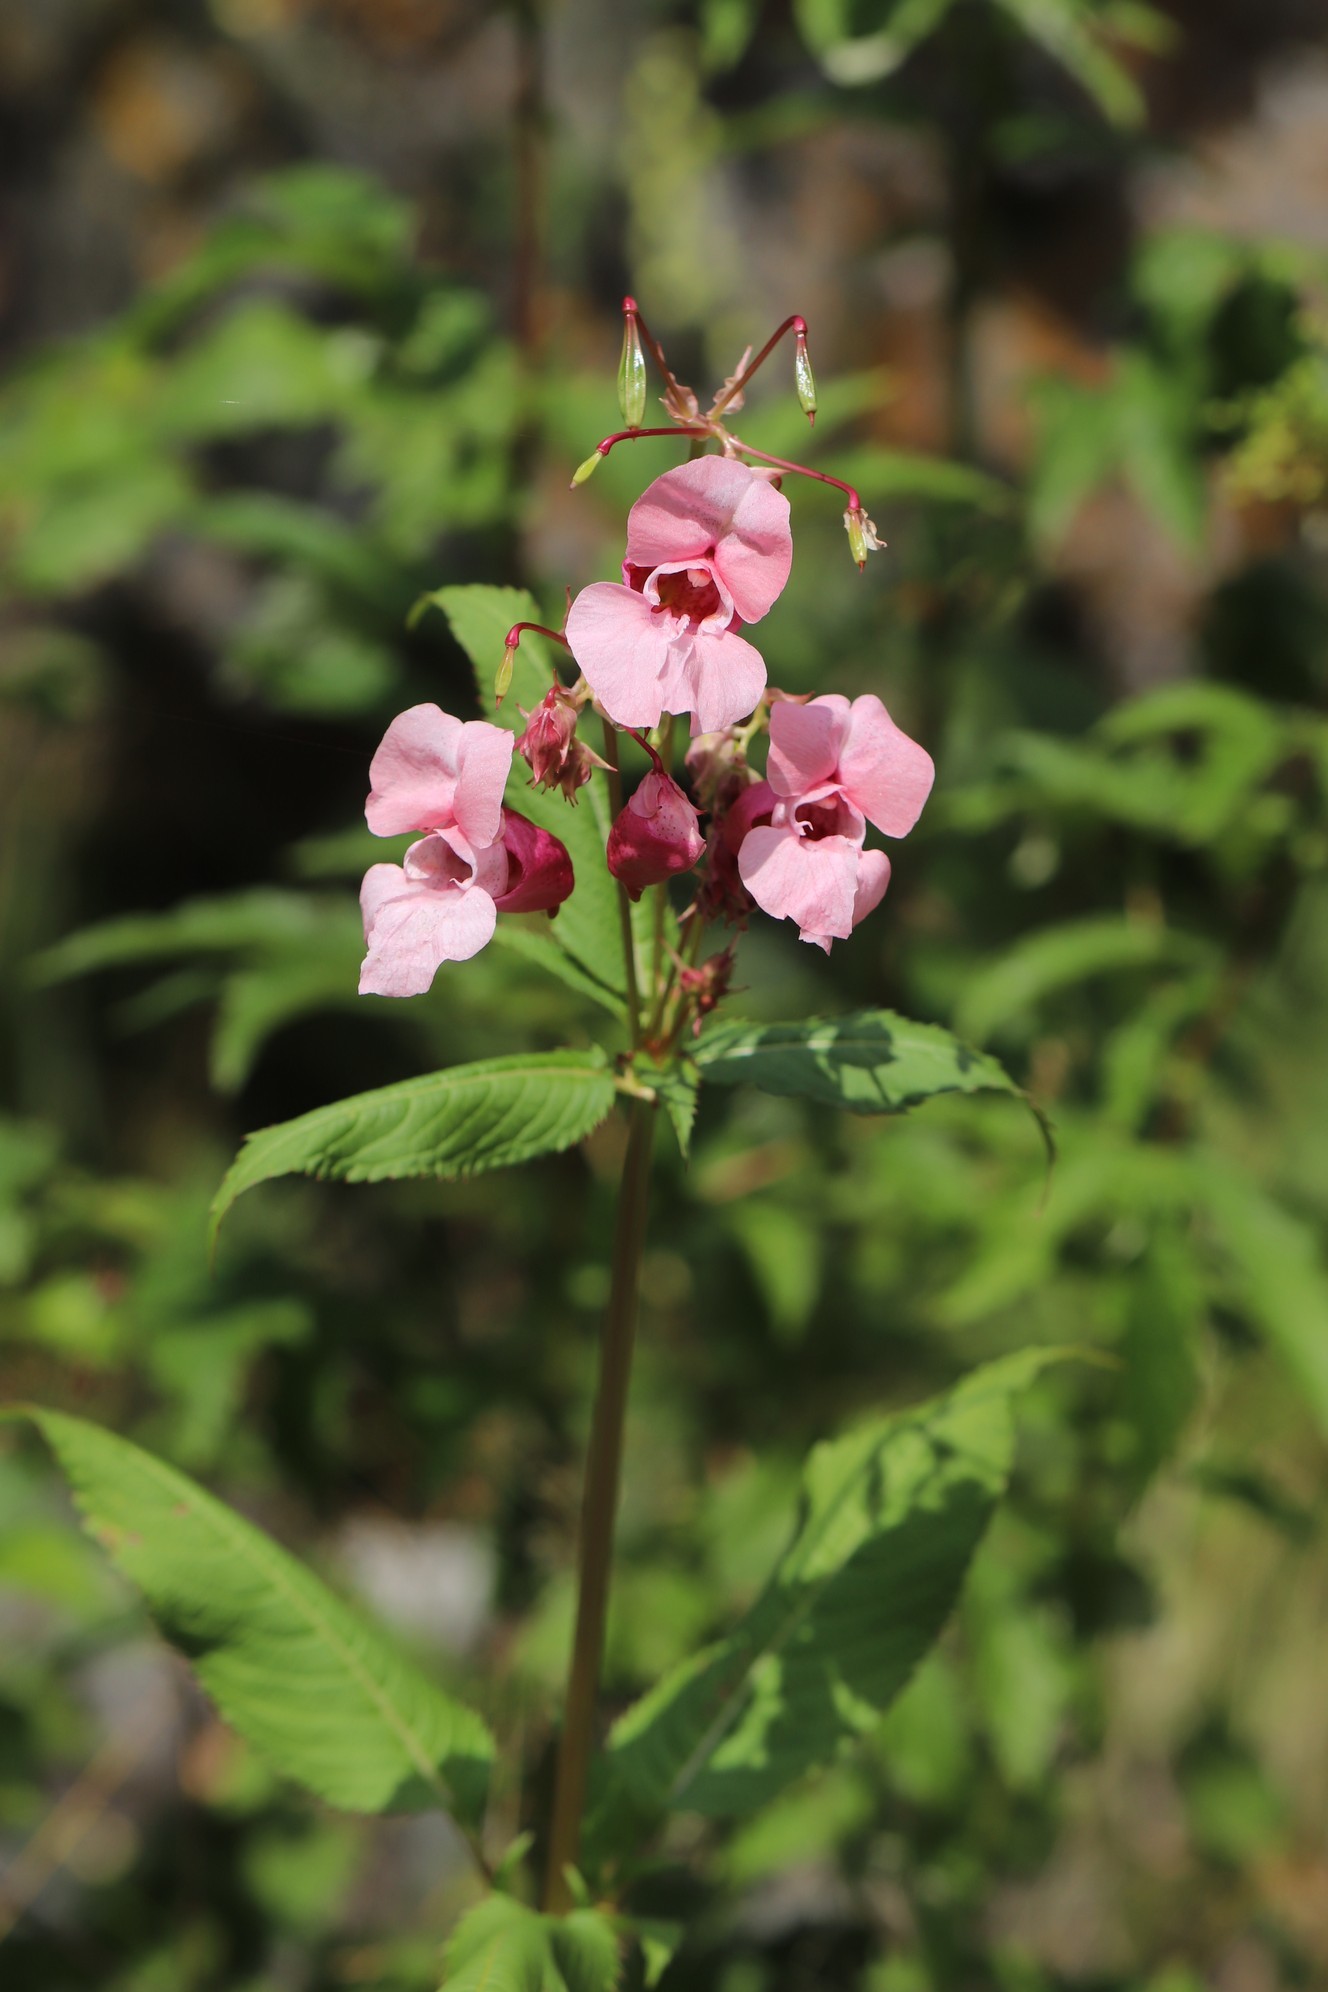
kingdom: Plantae
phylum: Tracheophyta
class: Magnoliopsida
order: Ericales
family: Balsaminaceae
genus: Impatiens
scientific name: Impatiens glandulifera
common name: Himalayan balsam
